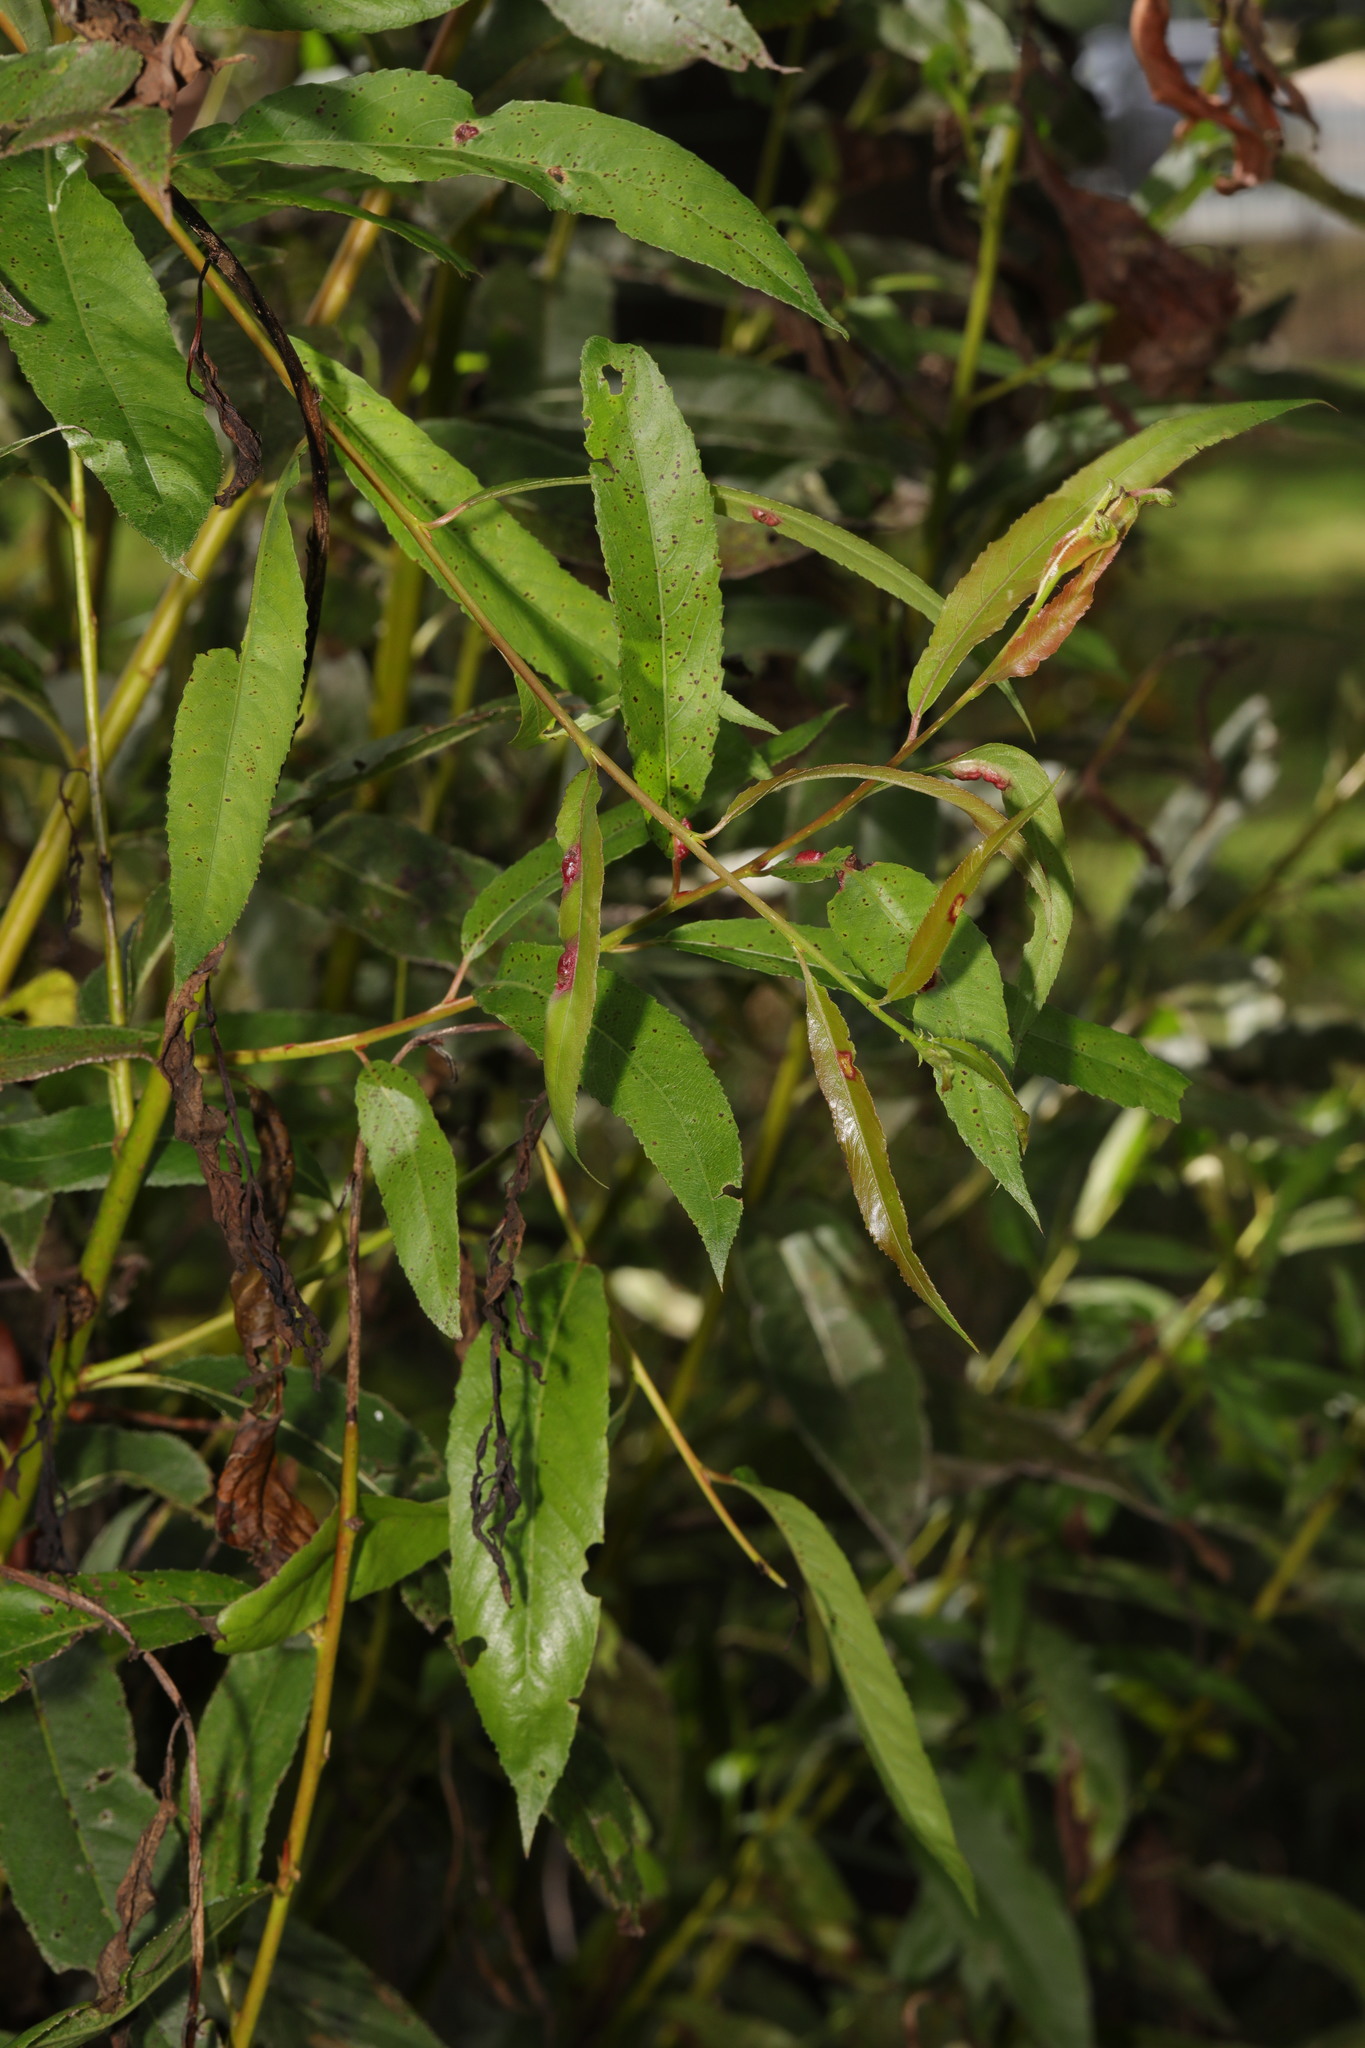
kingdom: Animalia
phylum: Arthropoda
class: Insecta
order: Hymenoptera
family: Tenthredinidae
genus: Pontania
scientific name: Pontania proxima
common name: Common sawfly
